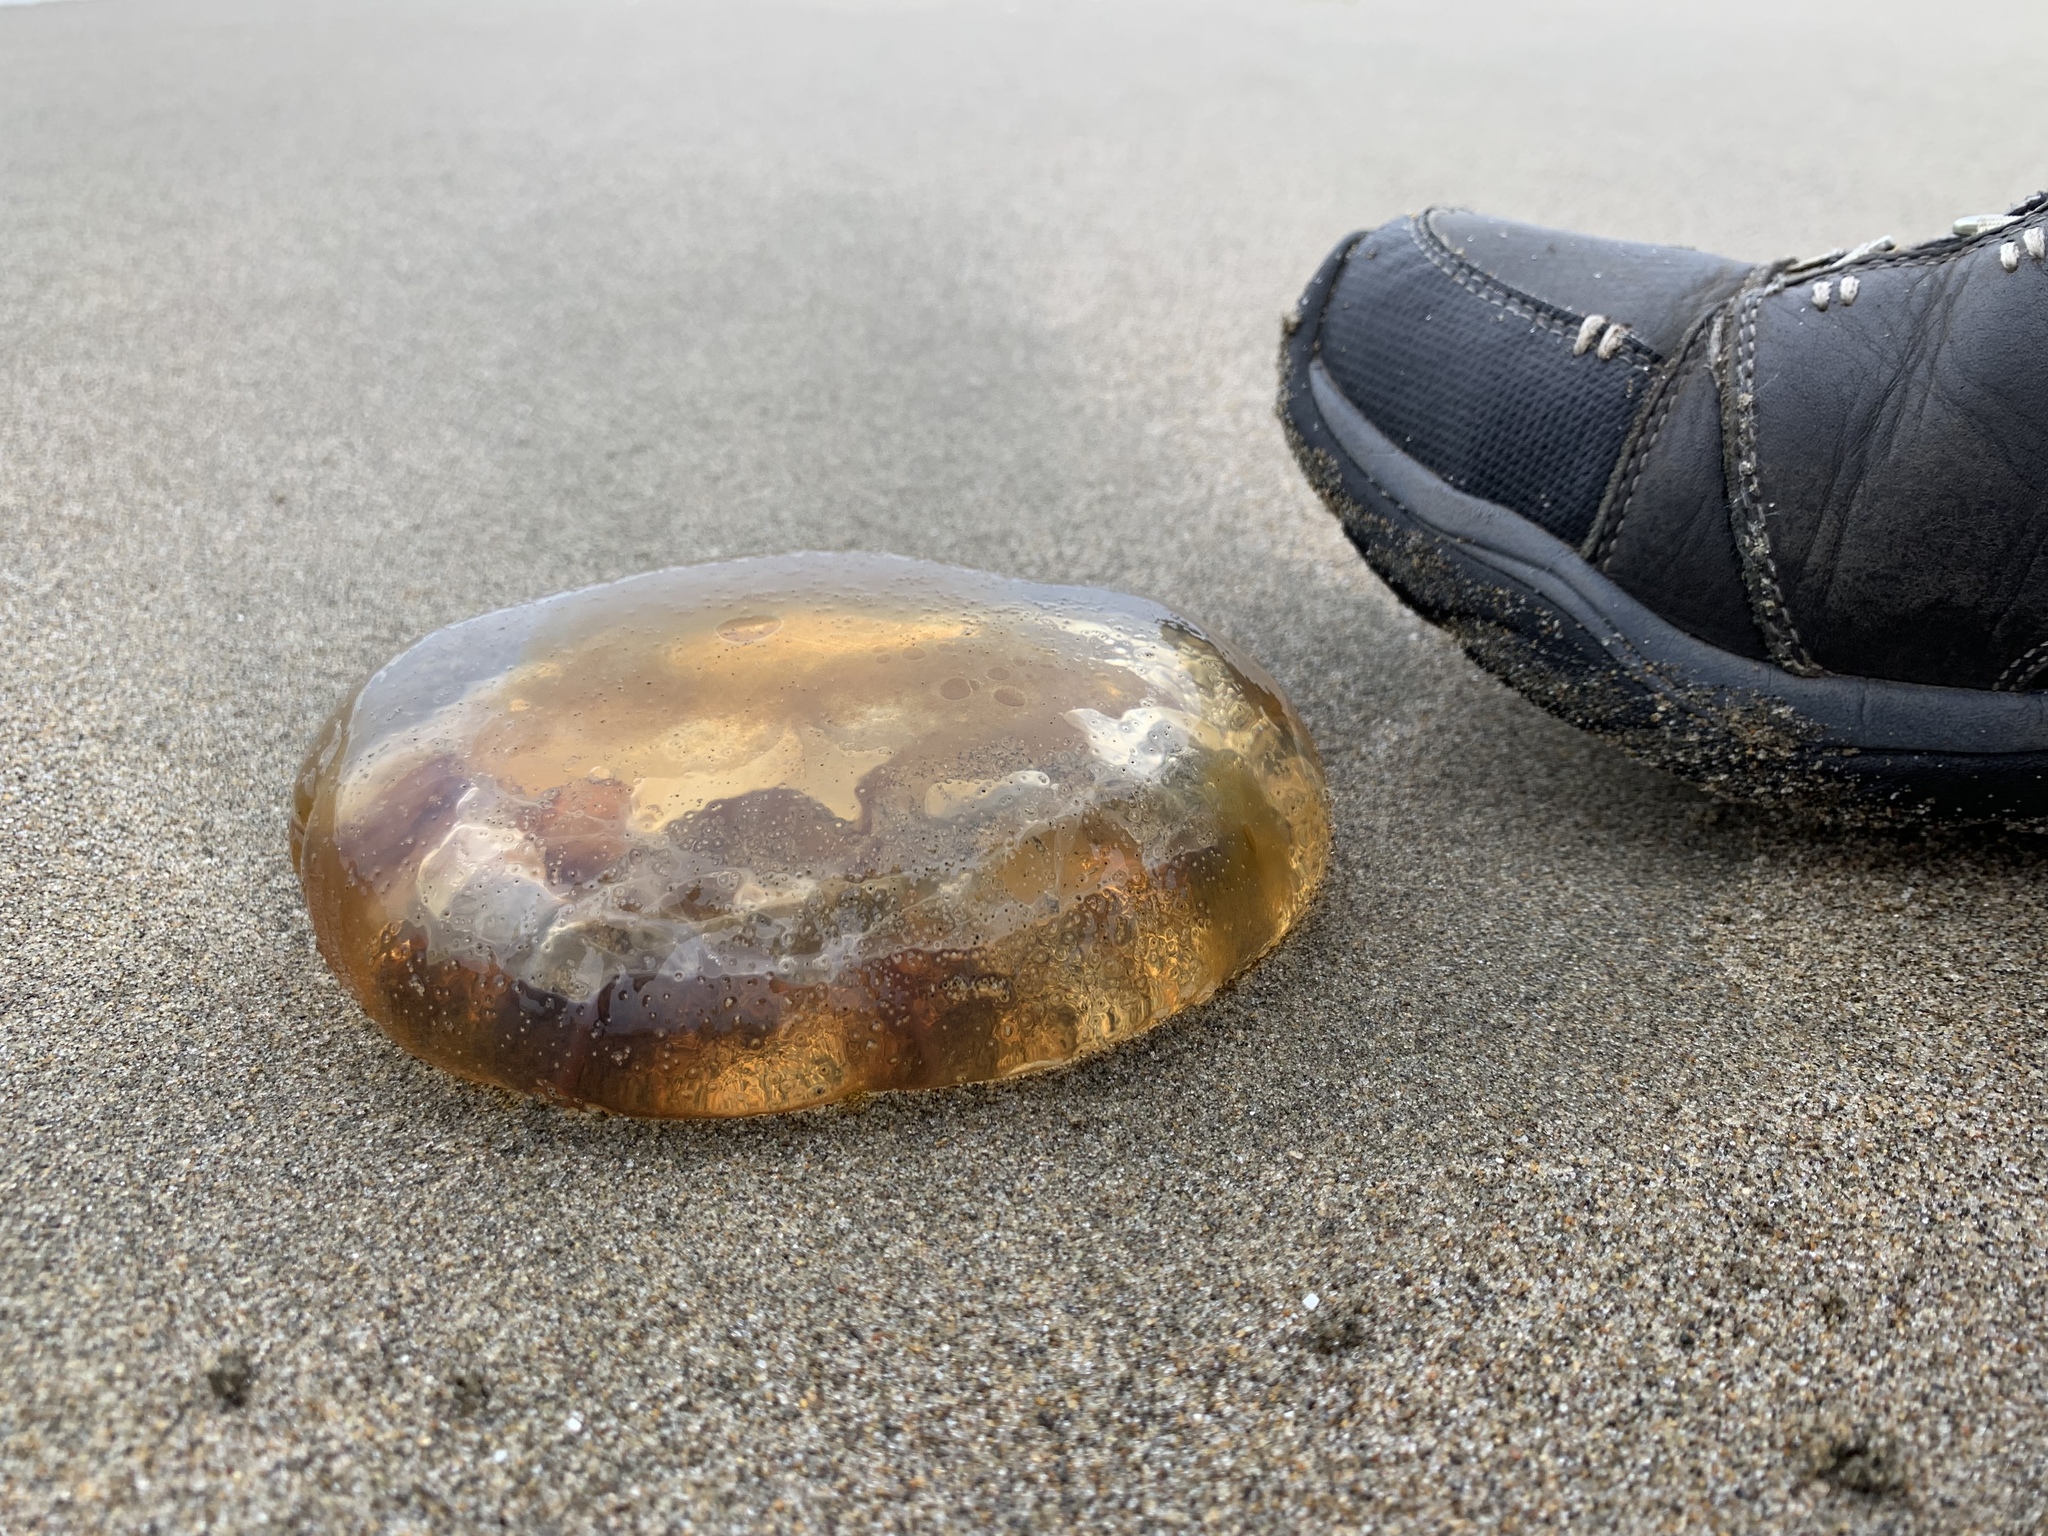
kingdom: Animalia
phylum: Cnidaria
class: Scyphozoa
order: Semaeostomeae
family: Pelagiidae
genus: Chrysaora
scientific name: Chrysaora fuscescens
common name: Sea nettle
